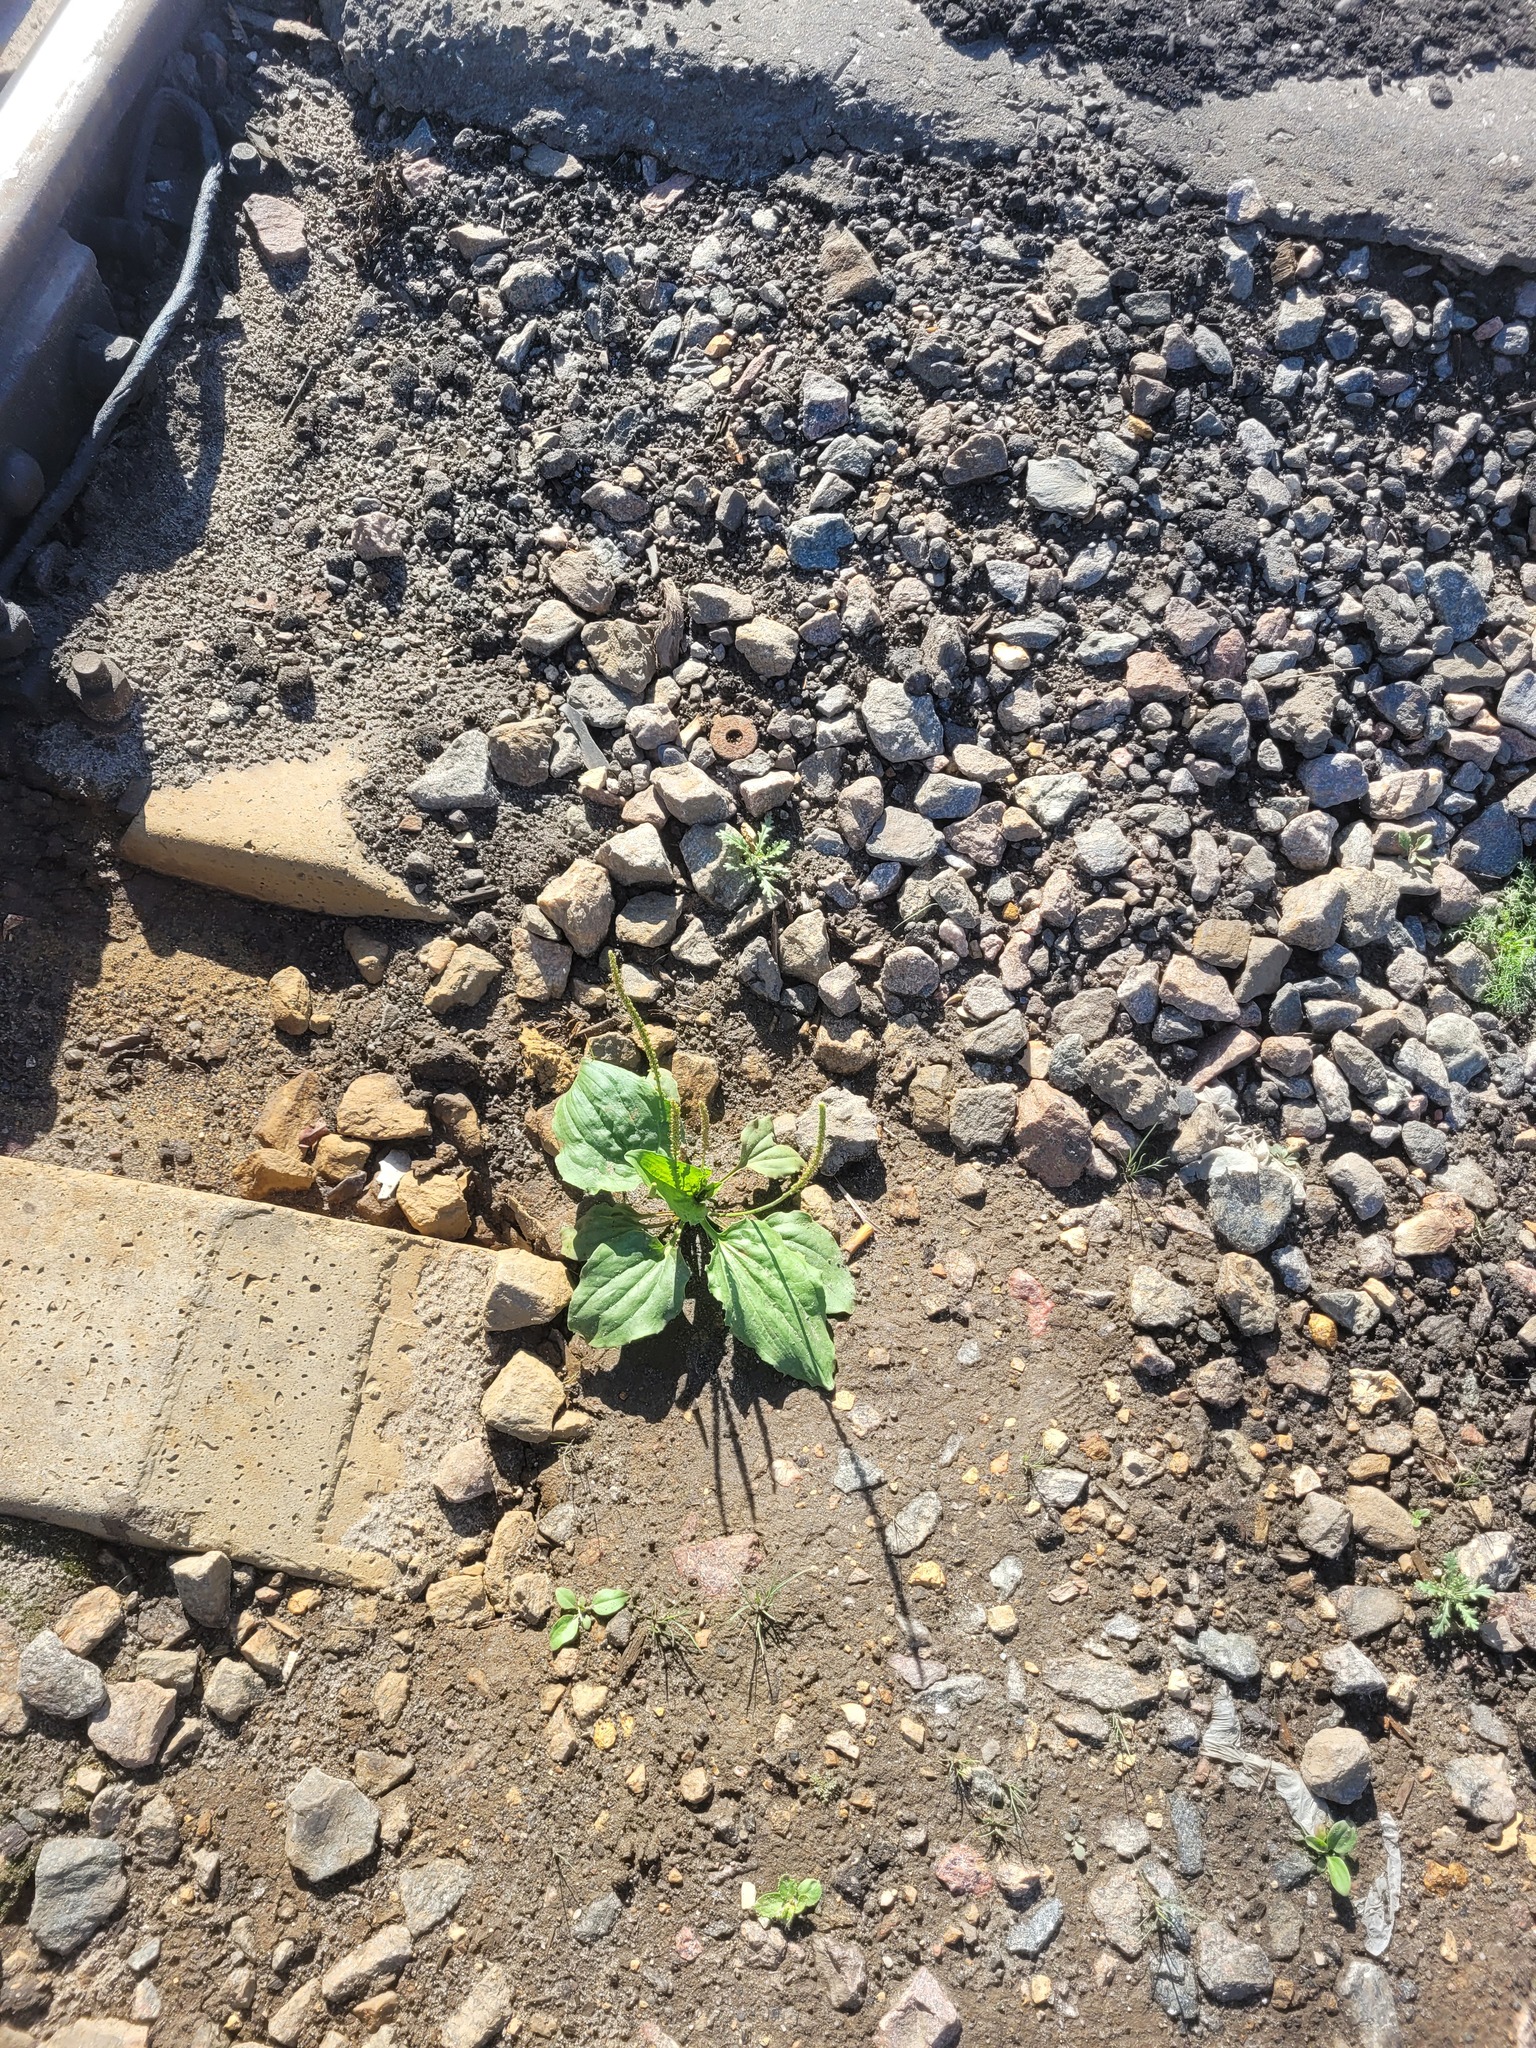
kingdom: Plantae
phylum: Tracheophyta
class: Magnoliopsida
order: Lamiales
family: Plantaginaceae
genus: Plantago
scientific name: Plantago major
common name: Common plantain
